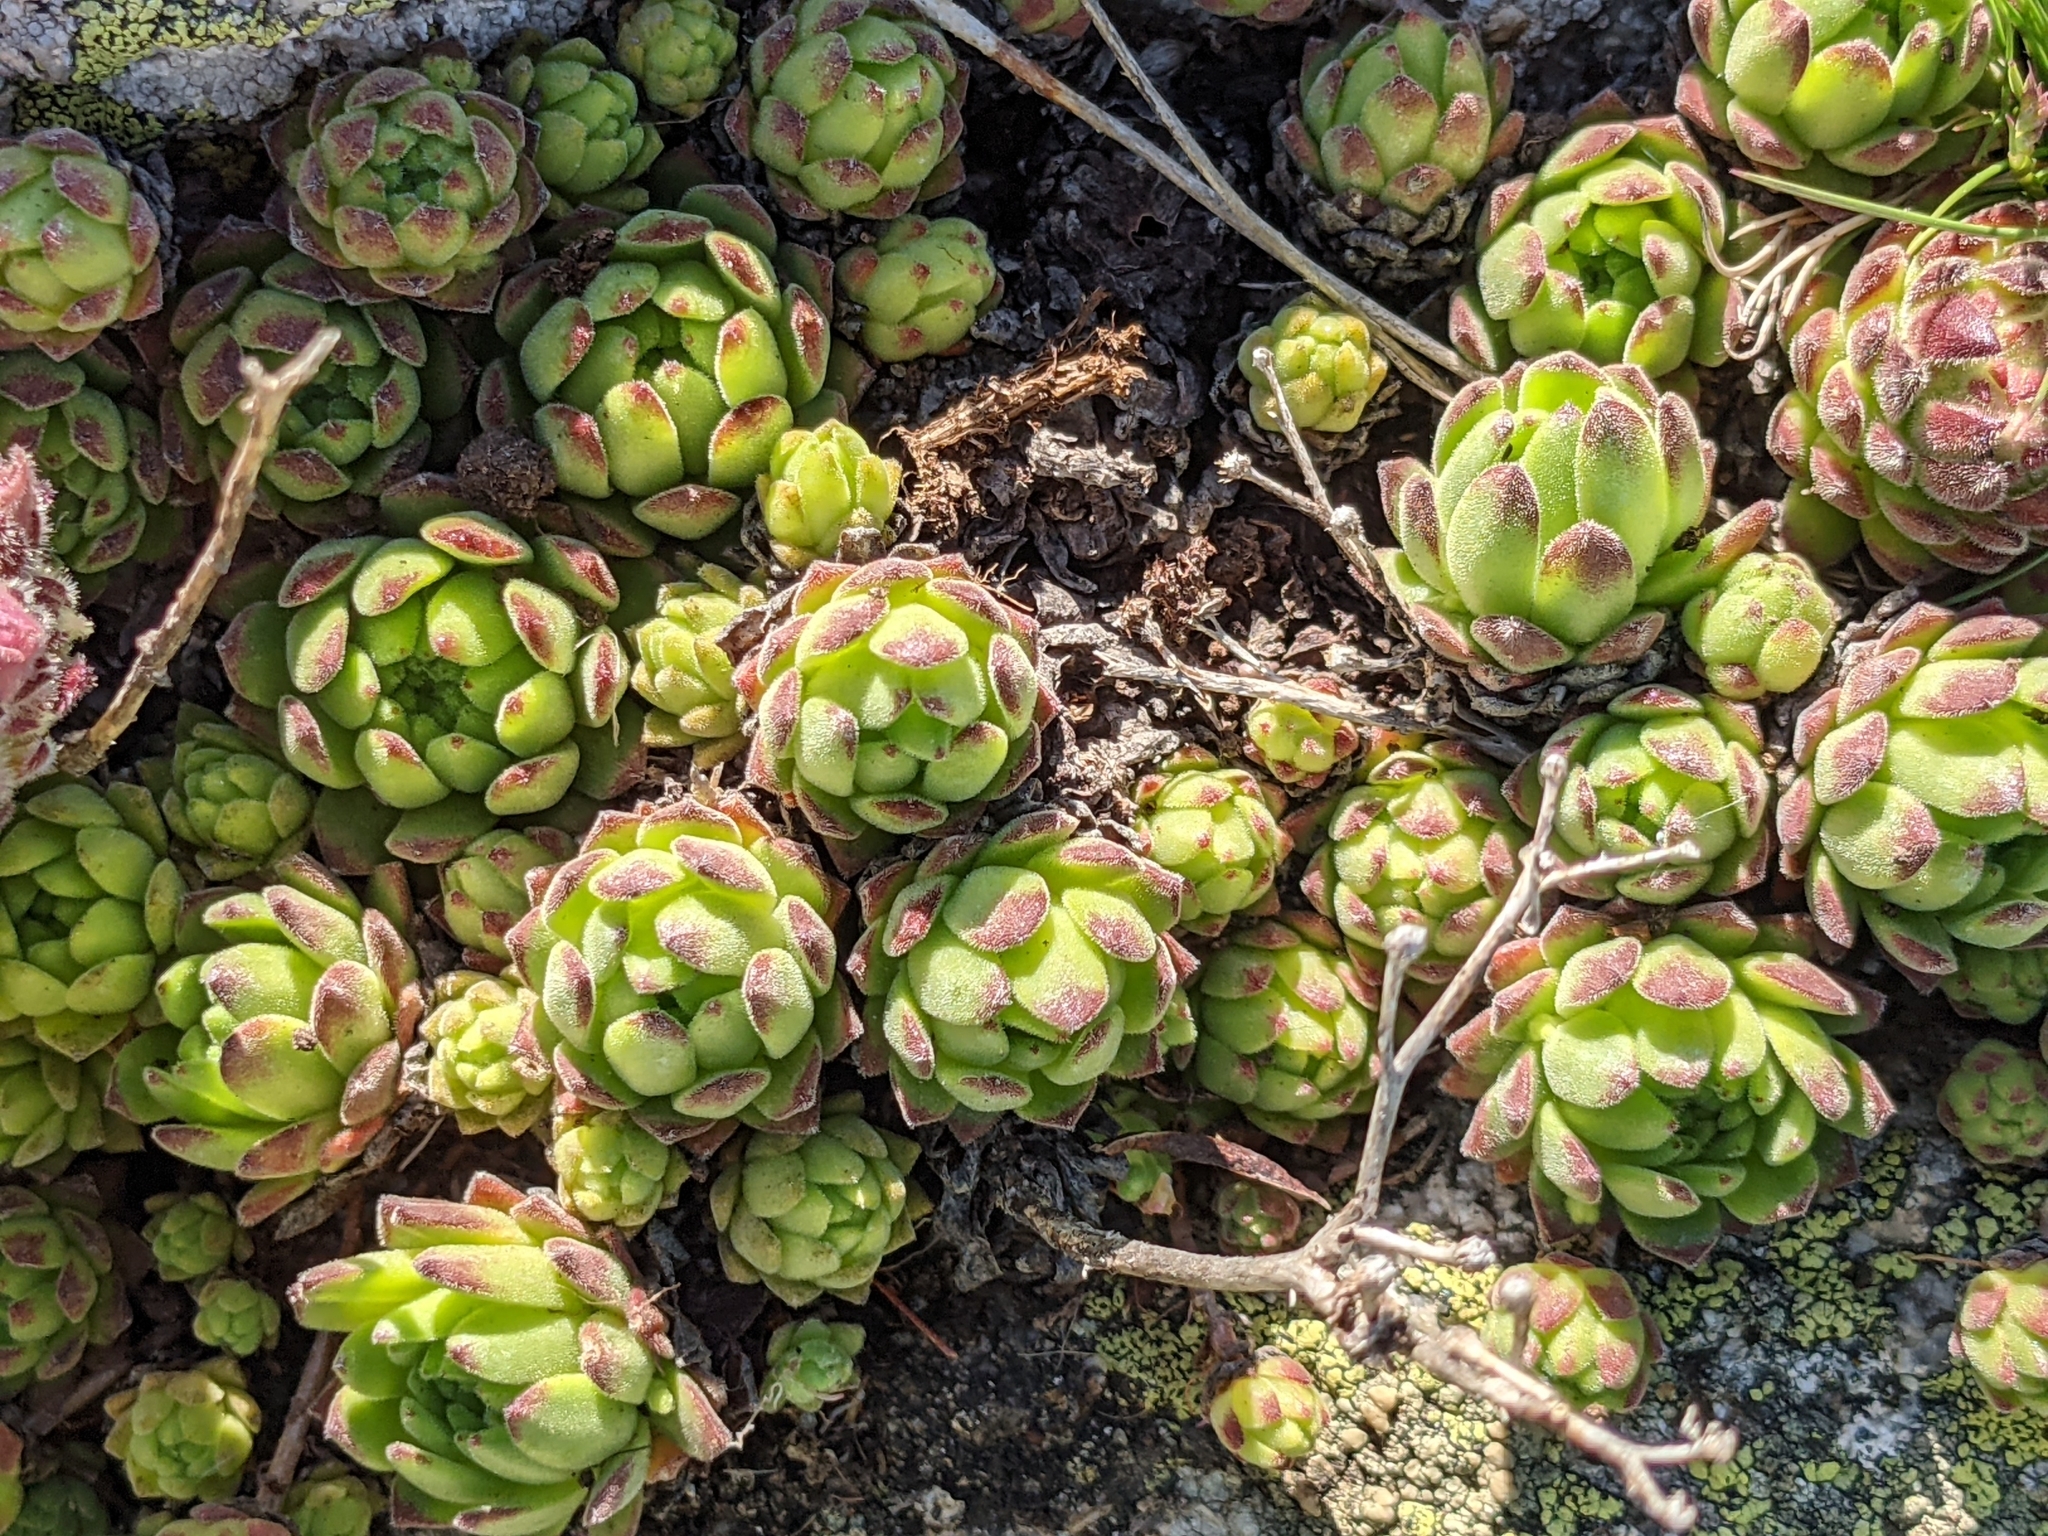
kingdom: Plantae
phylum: Tracheophyta
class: Magnoliopsida
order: Saxifragales
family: Crassulaceae
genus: Sempervivum
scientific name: Sempervivum montanum
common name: Mountain house-leek
